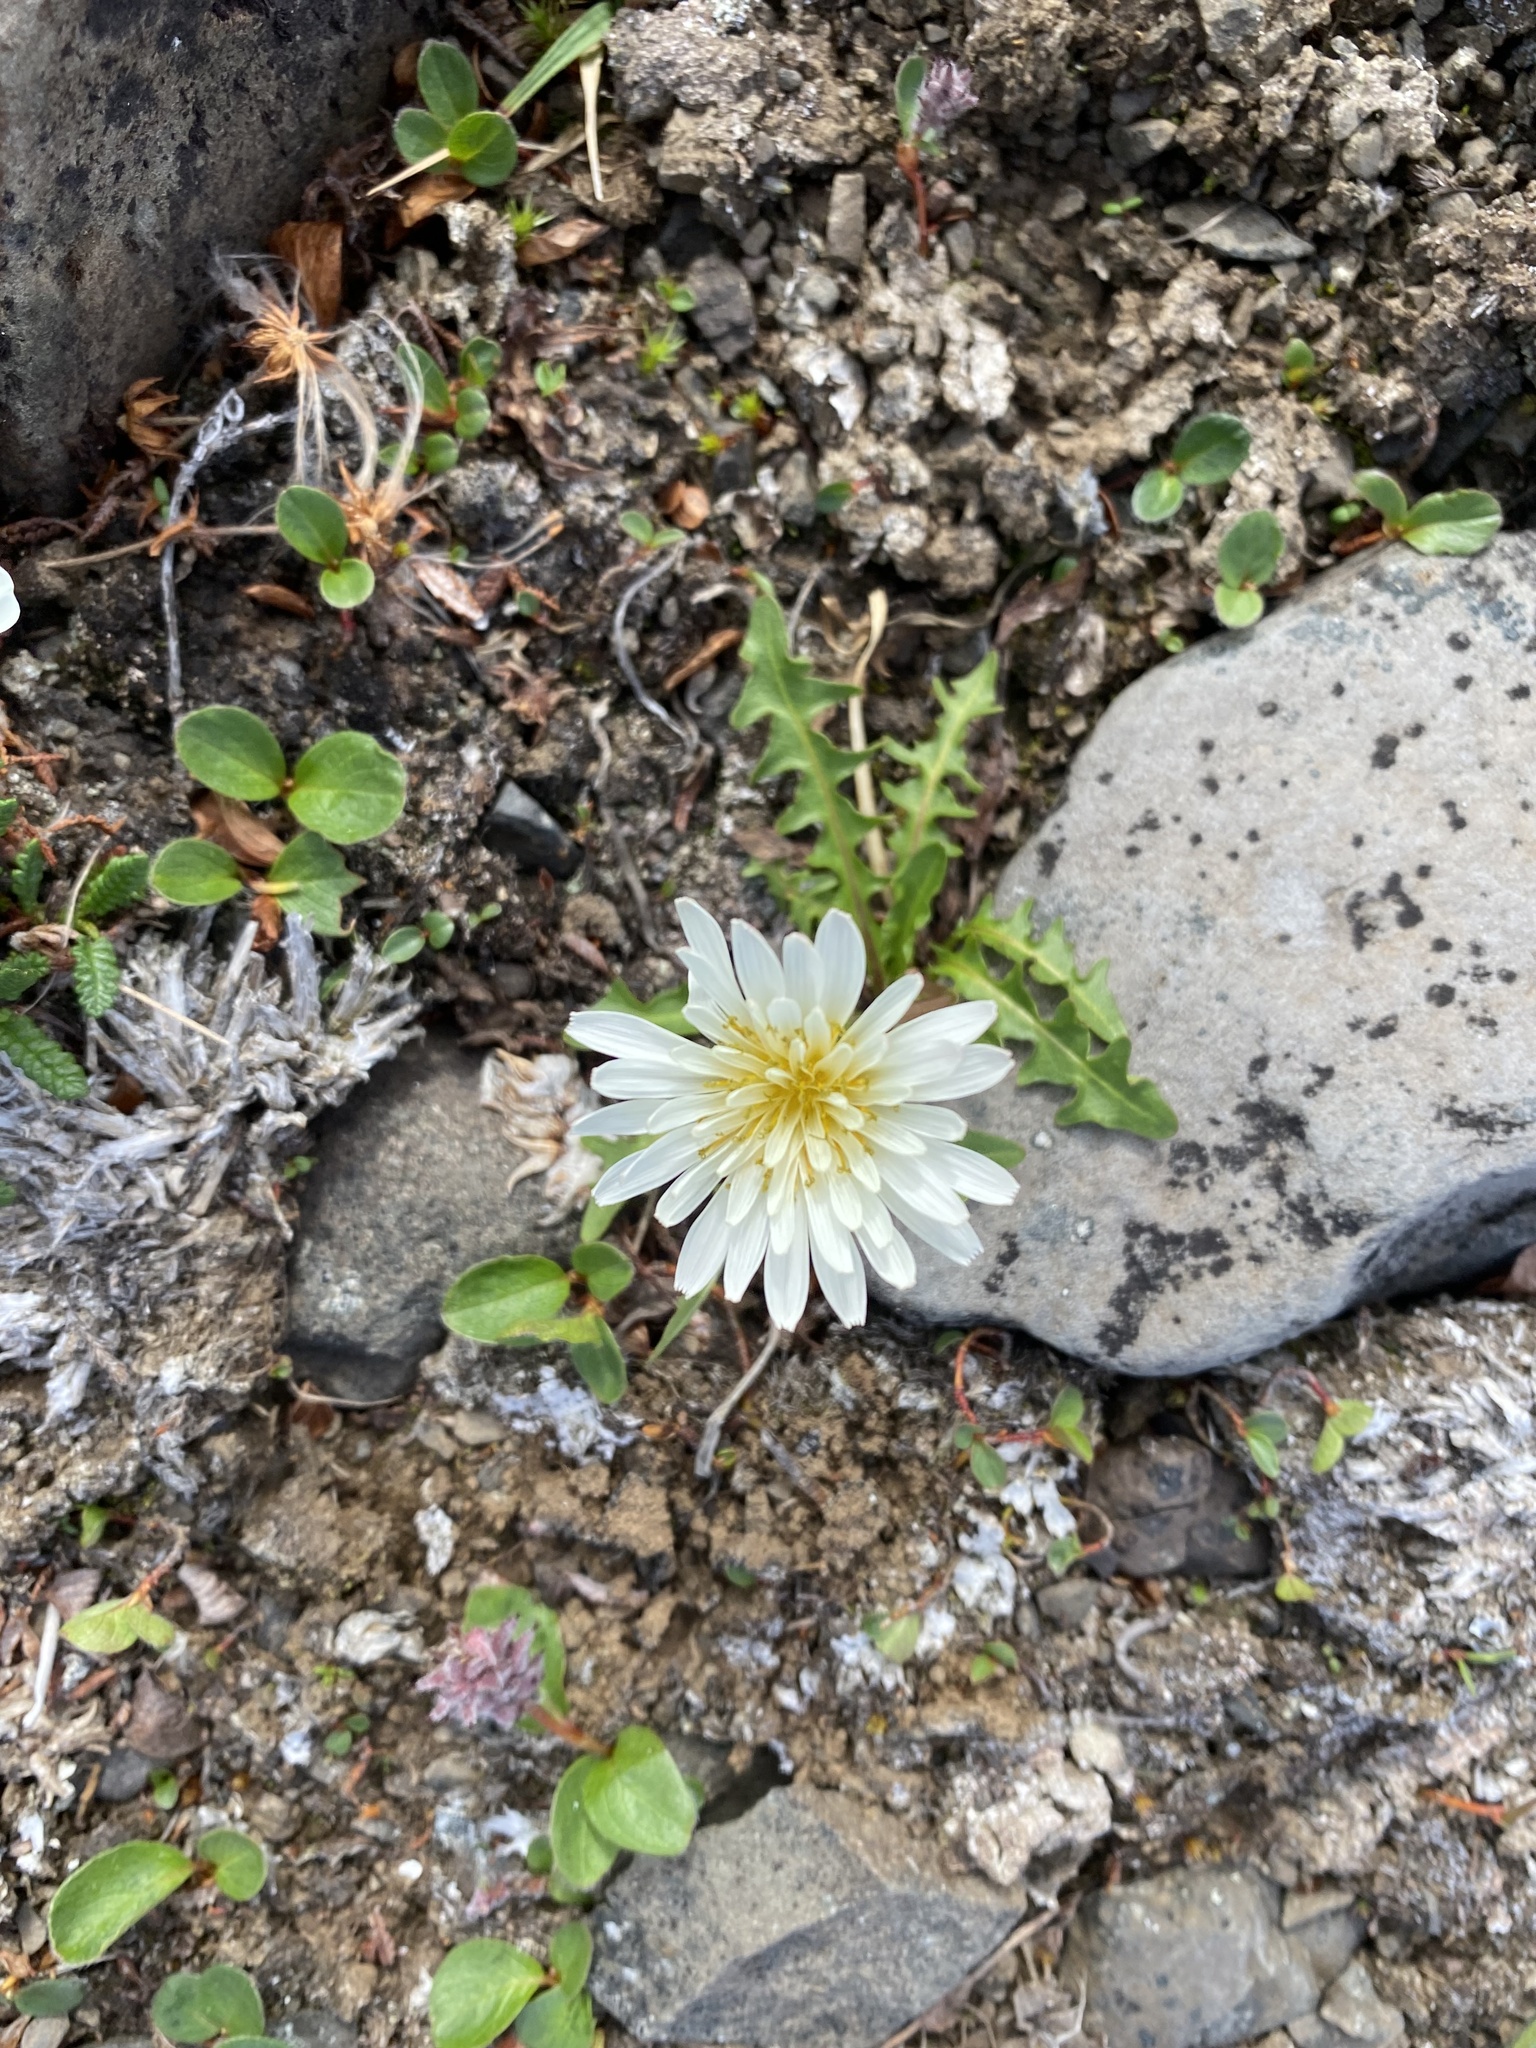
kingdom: Plantae
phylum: Tracheophyta
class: Magnoliopsida
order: Asterales
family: Asteraceae
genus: Taraxacum
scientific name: Taraxacum arcticum
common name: Arctic dandelion
